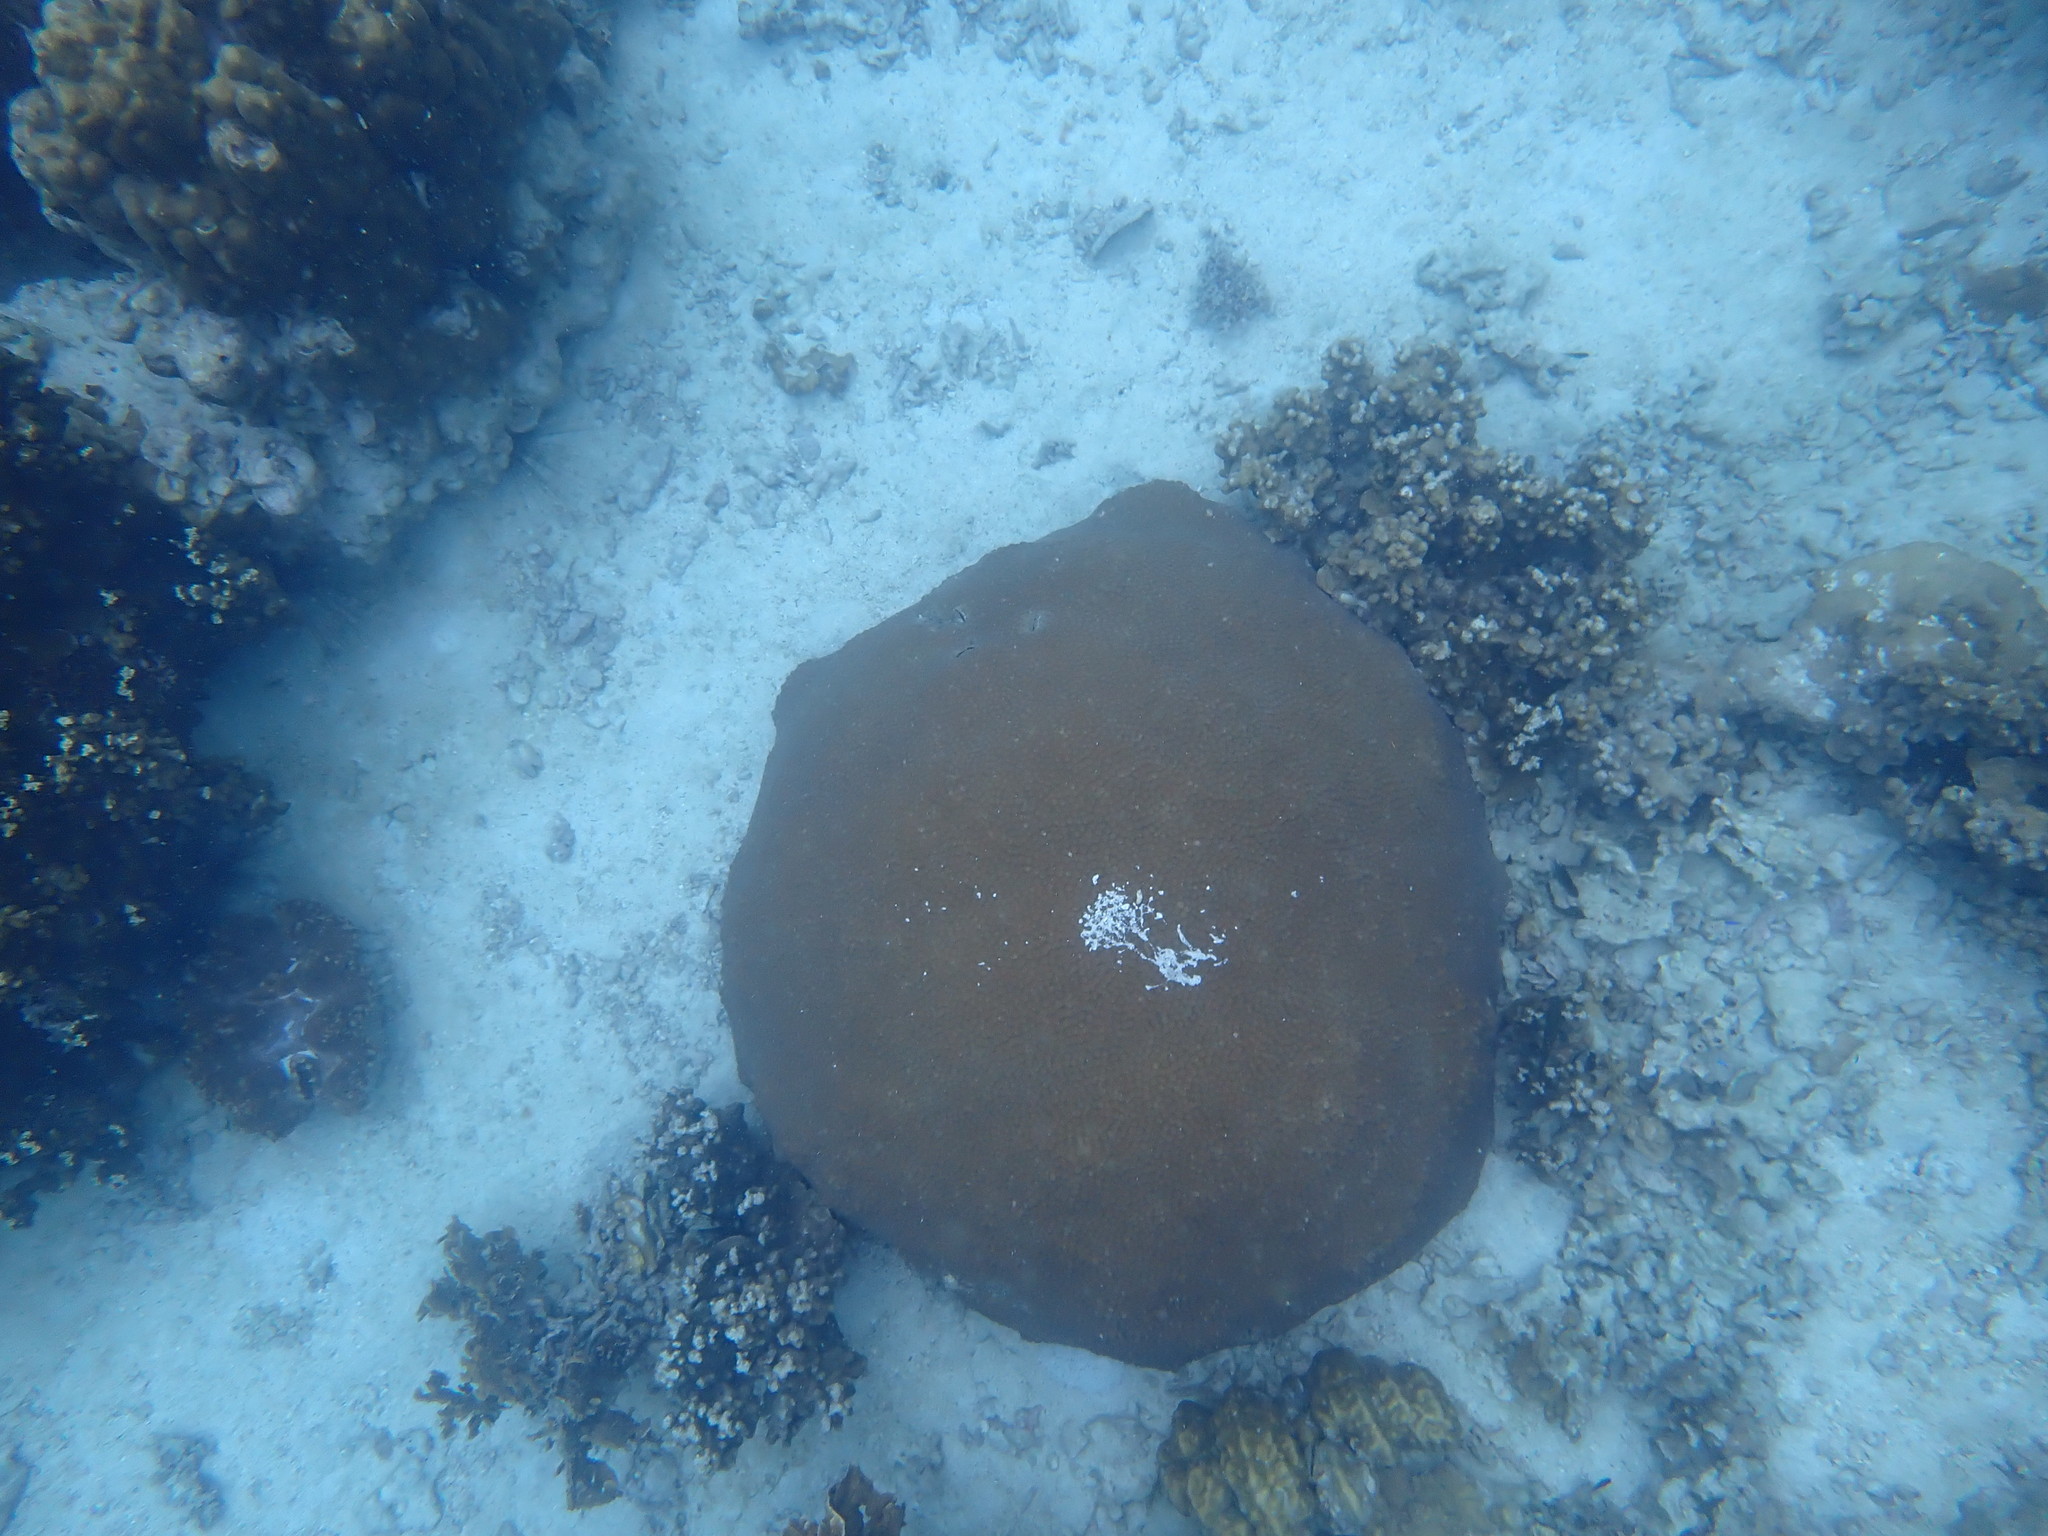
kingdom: Animalia
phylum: Cnidaria
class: Anthozoa
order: Scleractinia
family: Diploastraeidae
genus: Diploastrea
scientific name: Diploastrea heliopora
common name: Double-star coral
